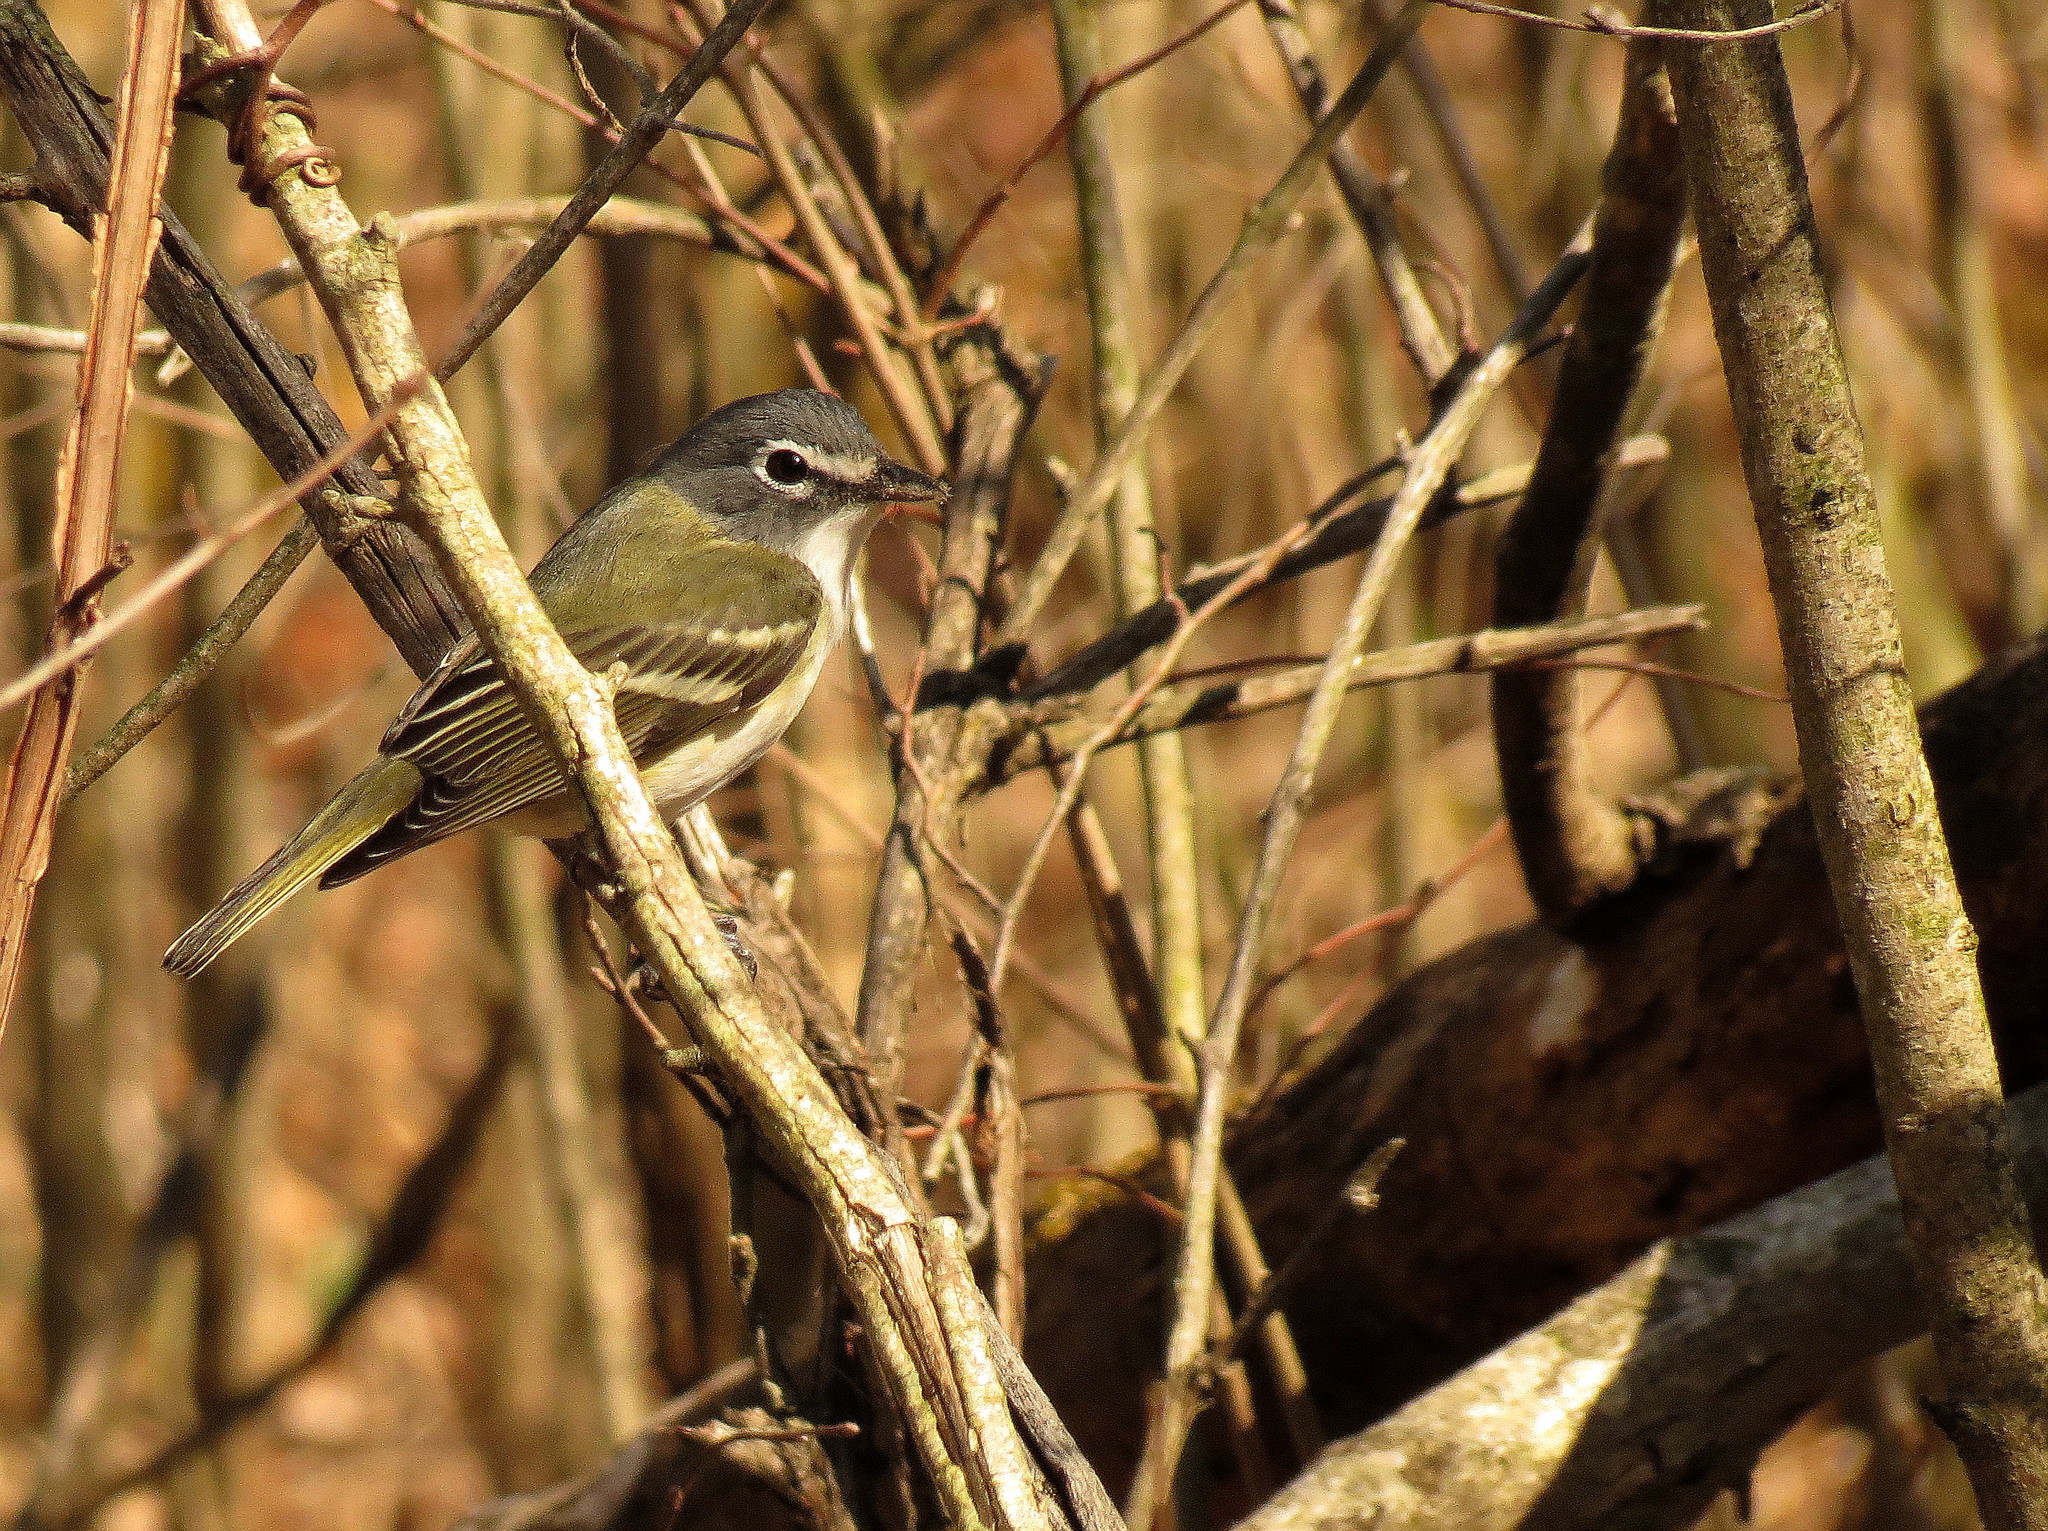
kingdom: Animalia
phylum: Chordata
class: Aves
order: Passeriformes
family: Vireonidae
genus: Vireo
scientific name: Vireo solitarius
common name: Blue-headed vireo
